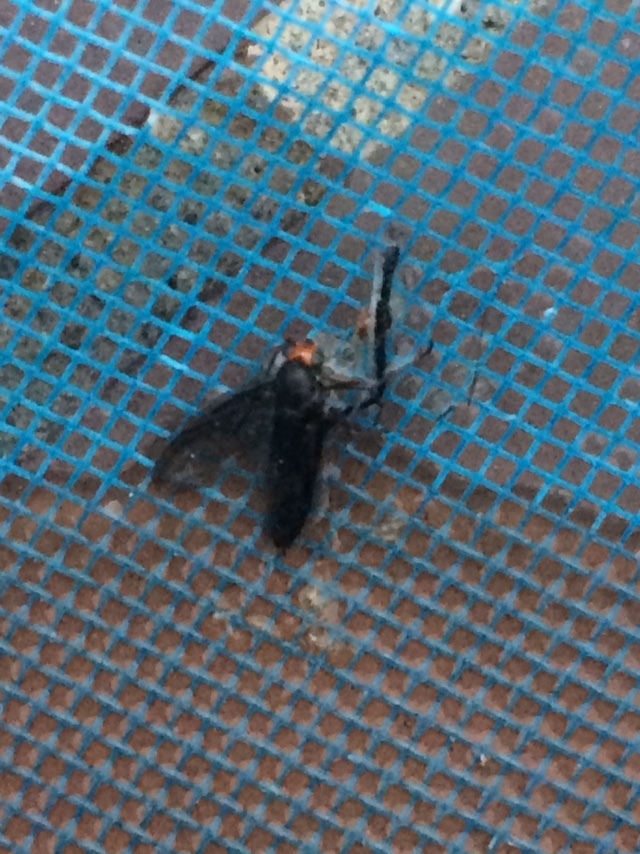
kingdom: Animalia
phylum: Arthropoda
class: Insecta
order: Diptera
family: Stratiomyidae
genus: Inopus
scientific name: Inopus rubriceps
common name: Soldier fly
